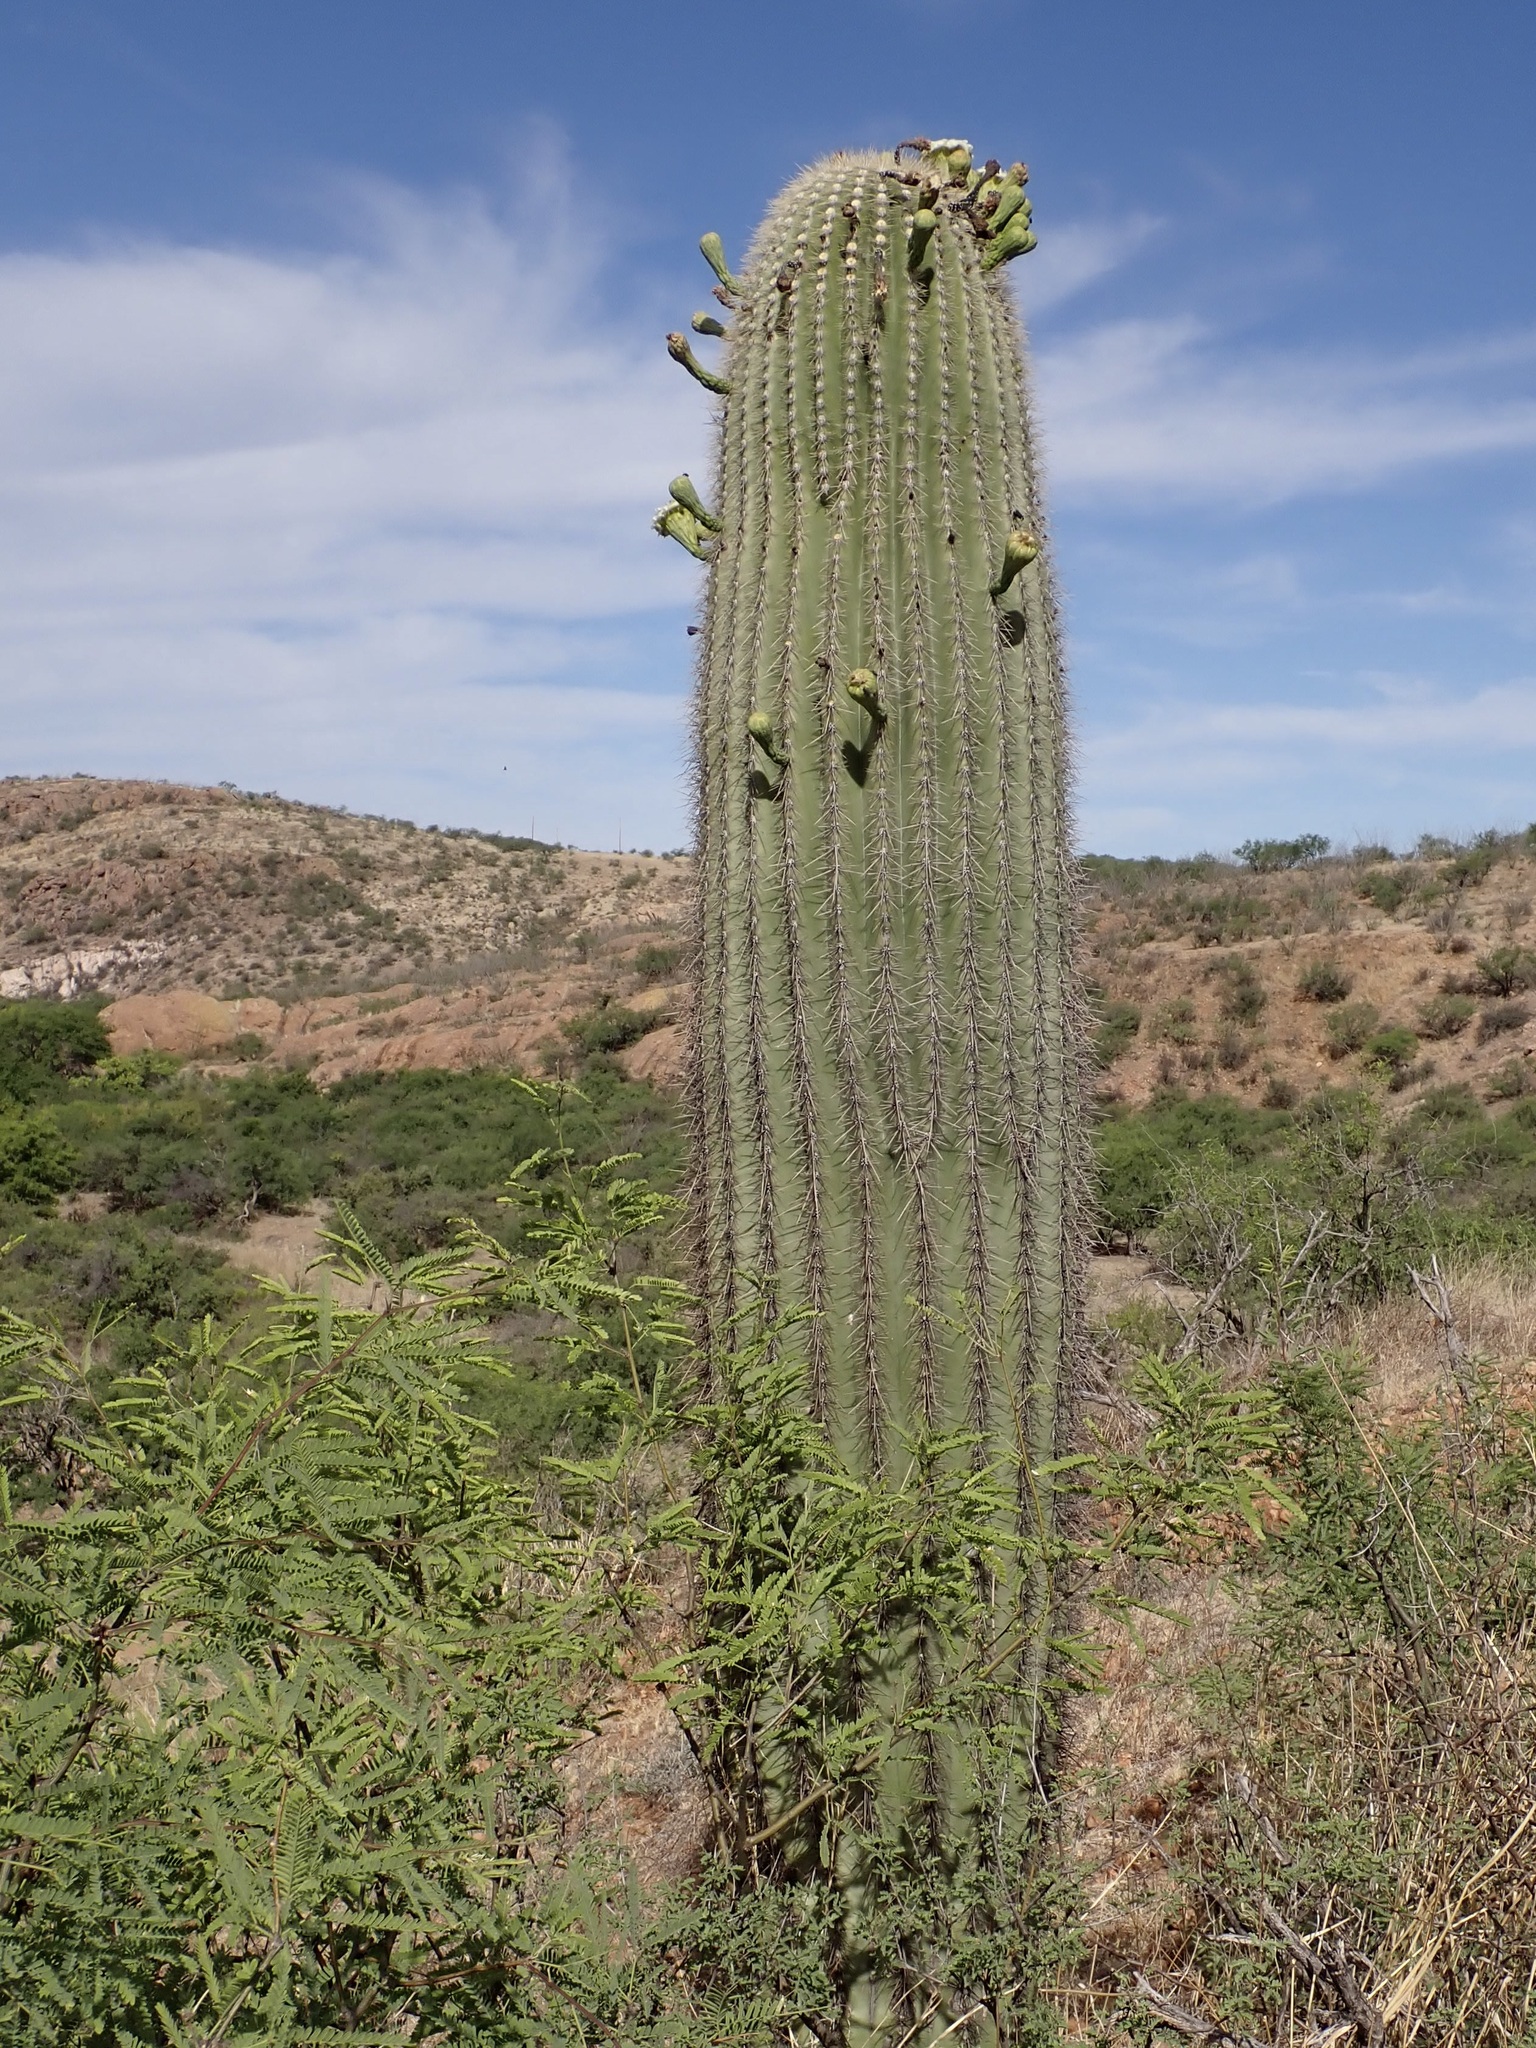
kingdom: Plantae
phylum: Tracheophyta
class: Magnoliopsida
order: Caryophyllales
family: Cactaceae
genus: Carnegiea
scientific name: Carnegiea gigantea
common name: Saguaro
